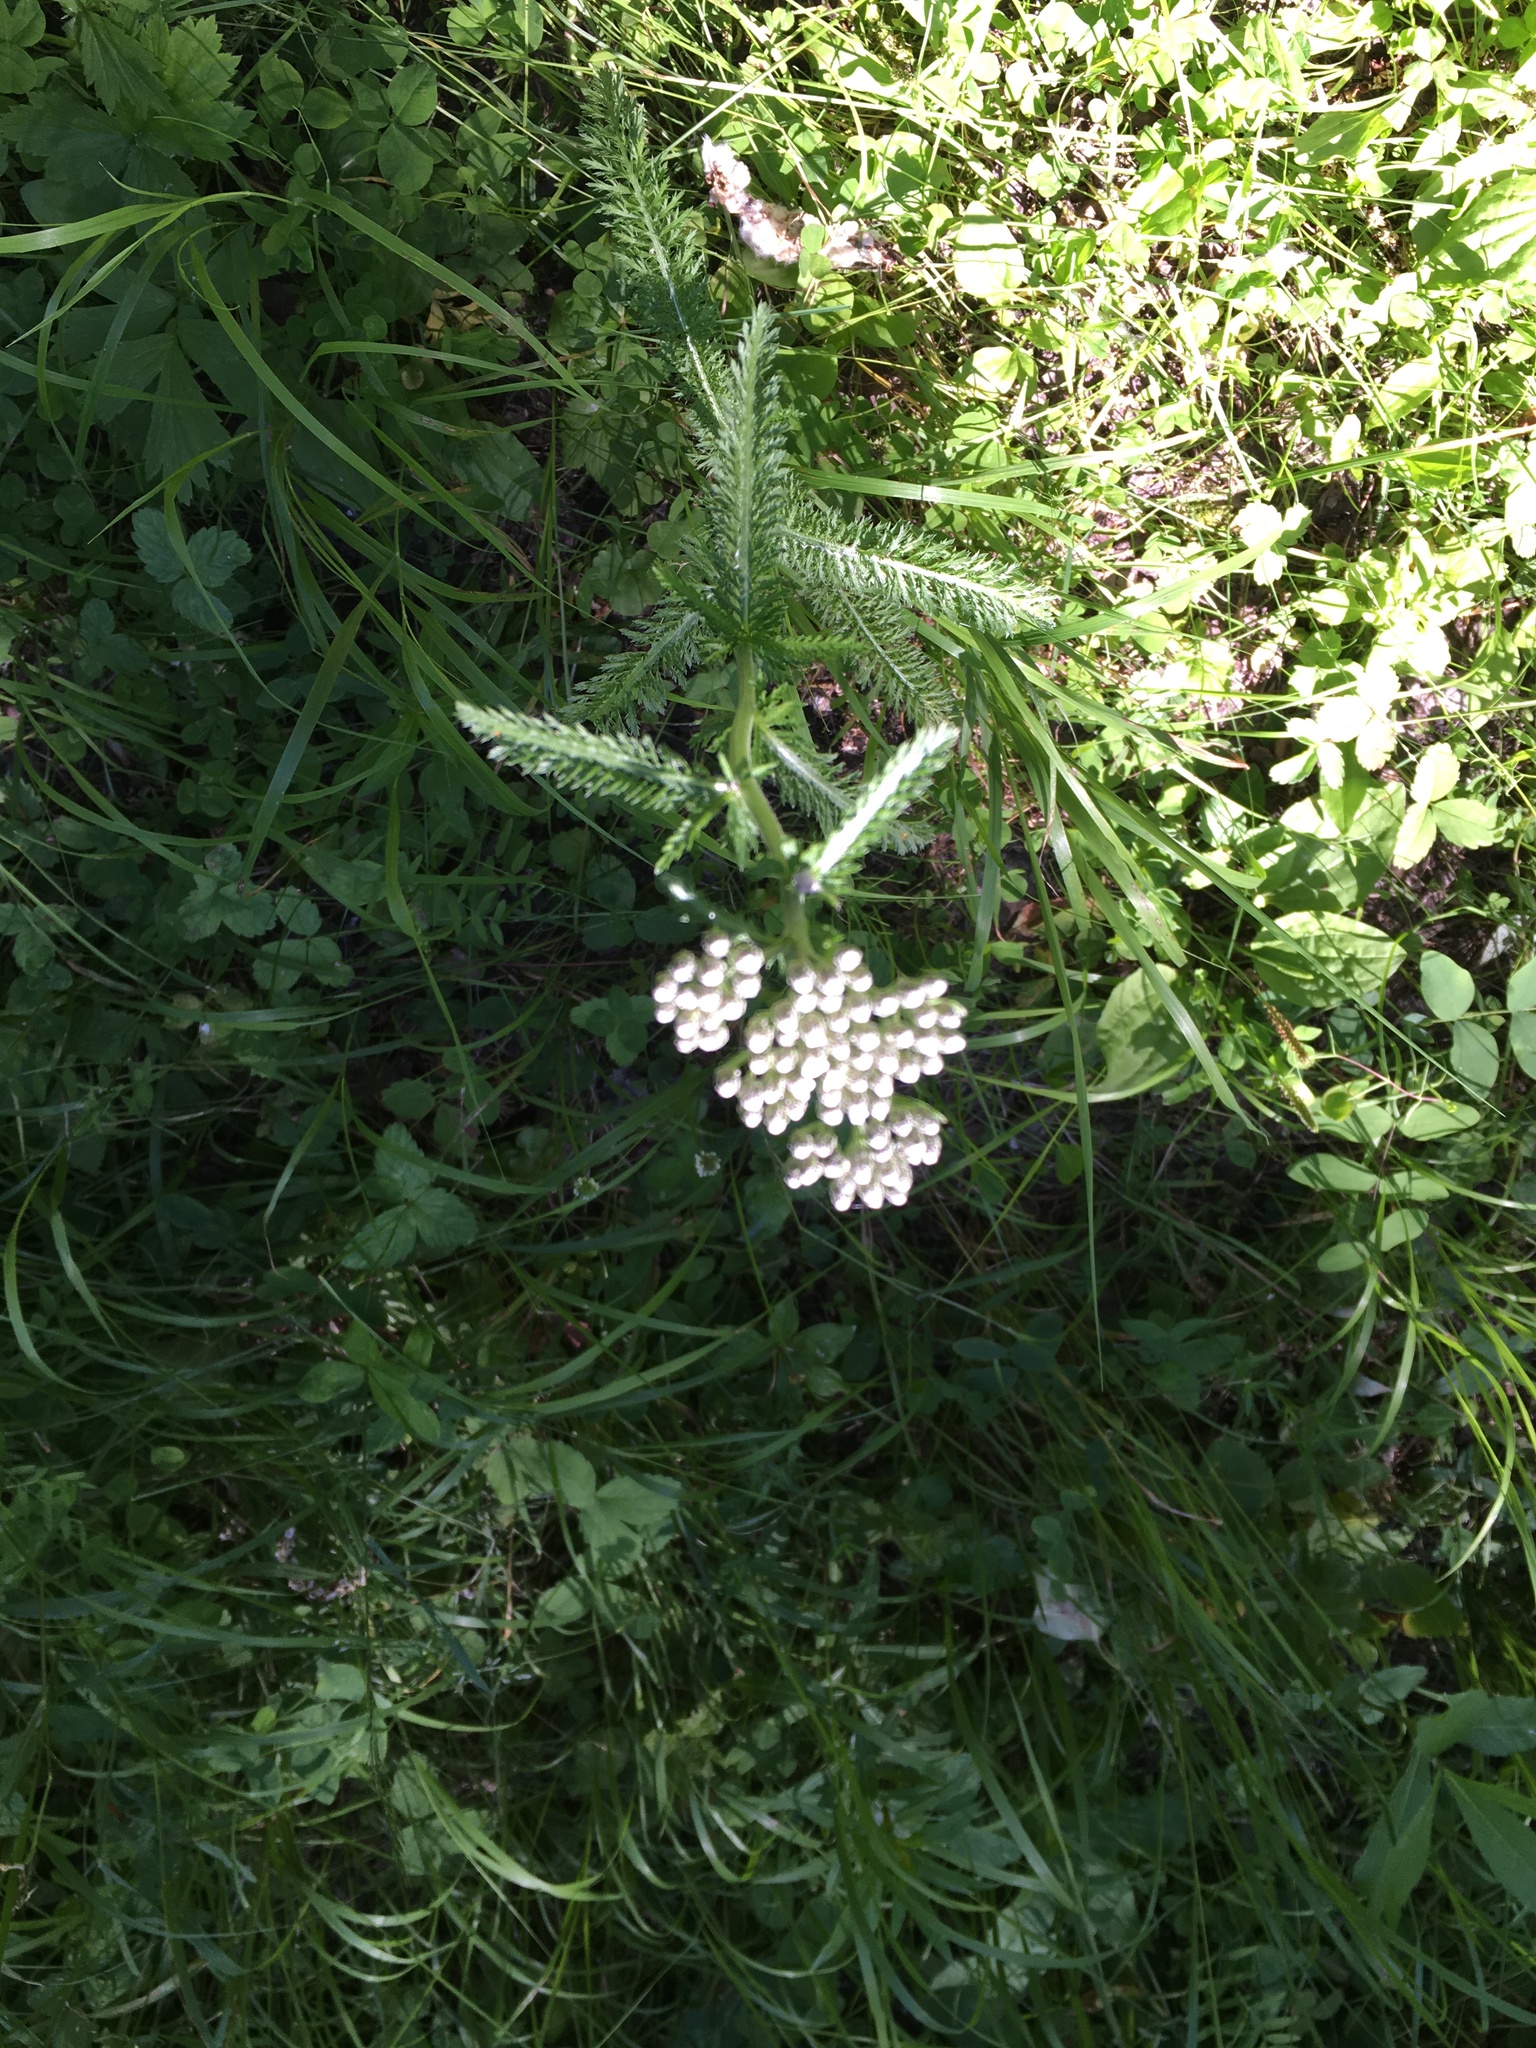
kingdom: Plantae
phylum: Tracheophyta
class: Magnoliopsida
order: Asterales
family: Asteraceae
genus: Achillea
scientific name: Achillea millefolium
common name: Yarrow
